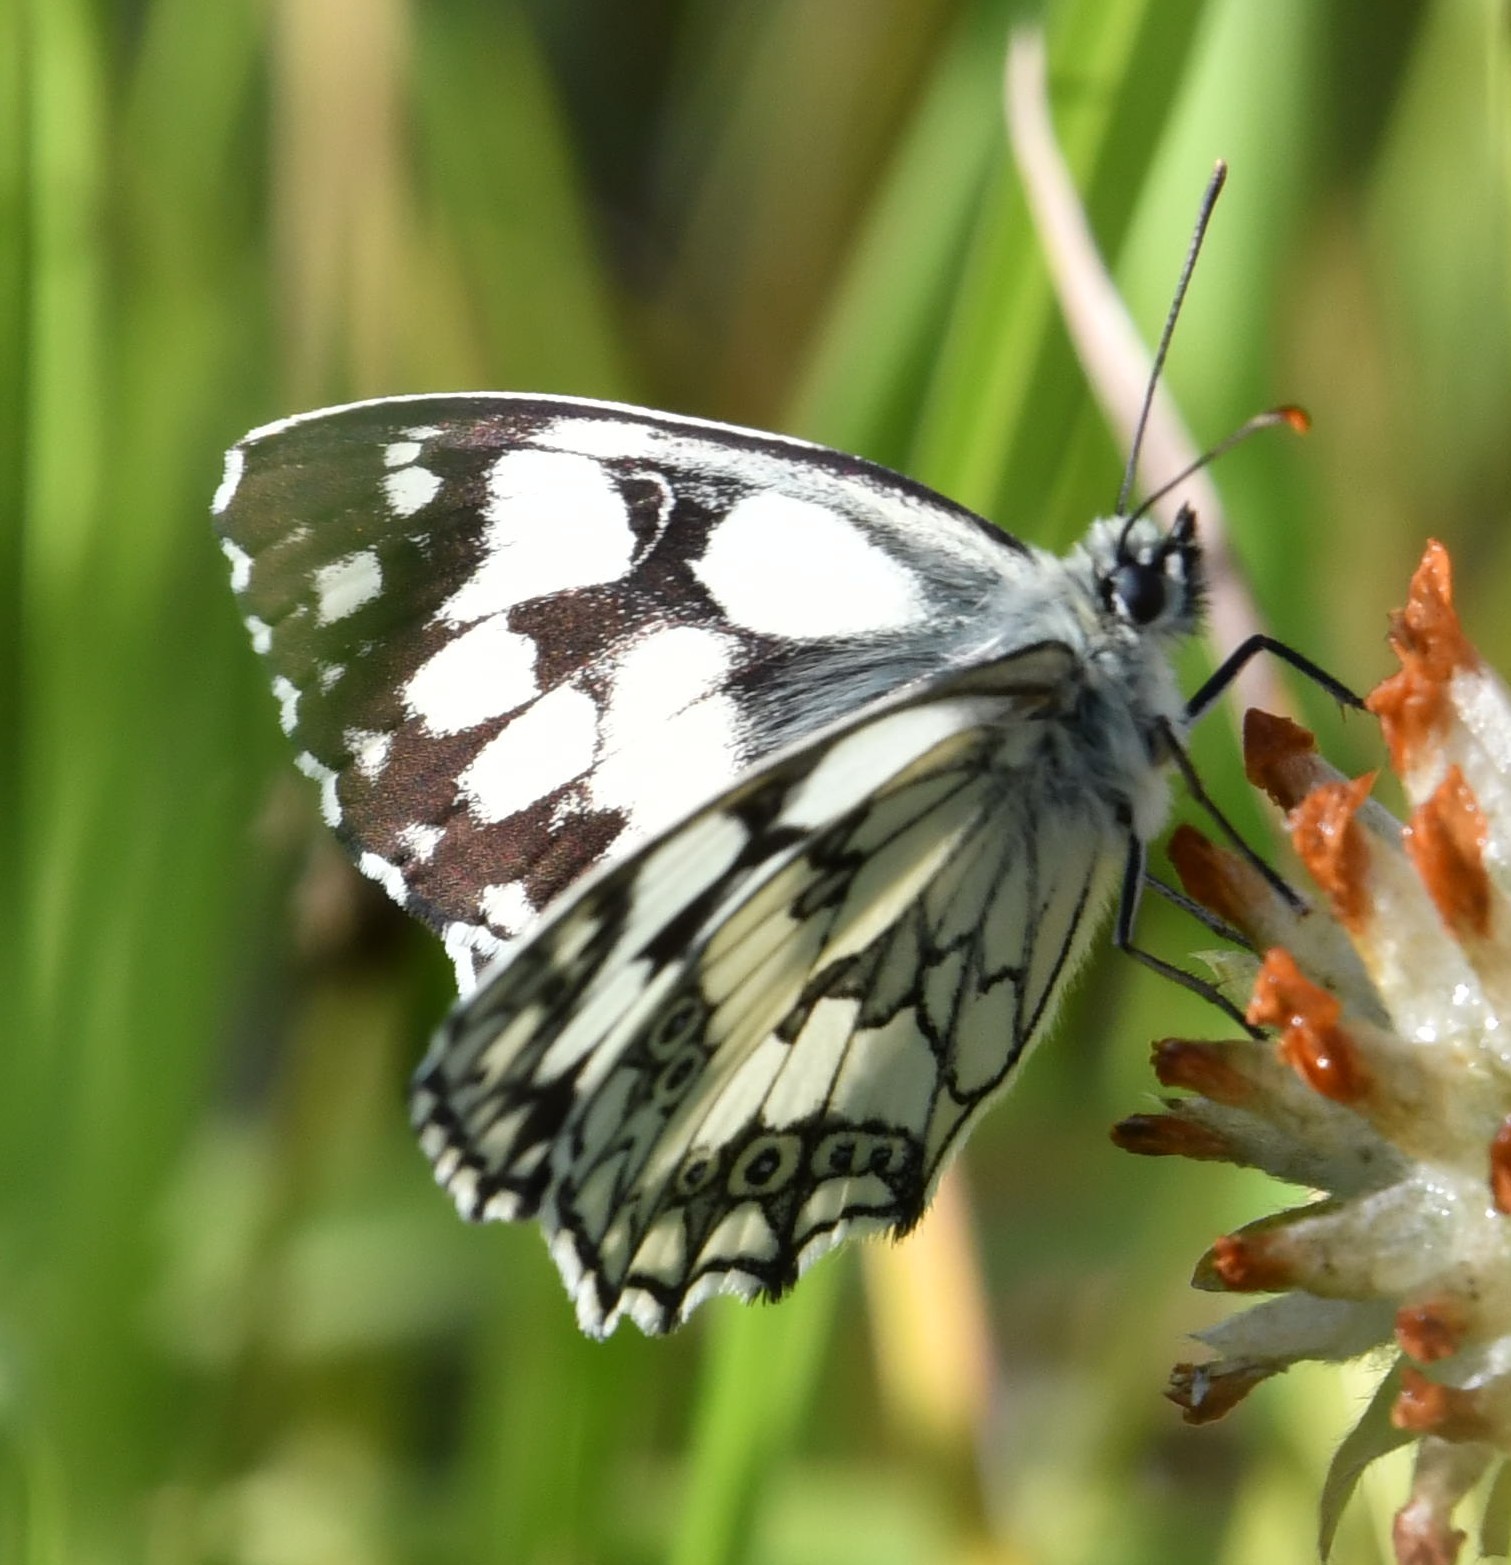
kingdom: Animalia
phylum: Arthropoda
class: Insecta
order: Lepidoptera
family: Nymphalidae
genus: Melanargia
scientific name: Melanargia galathea
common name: Marbled white
